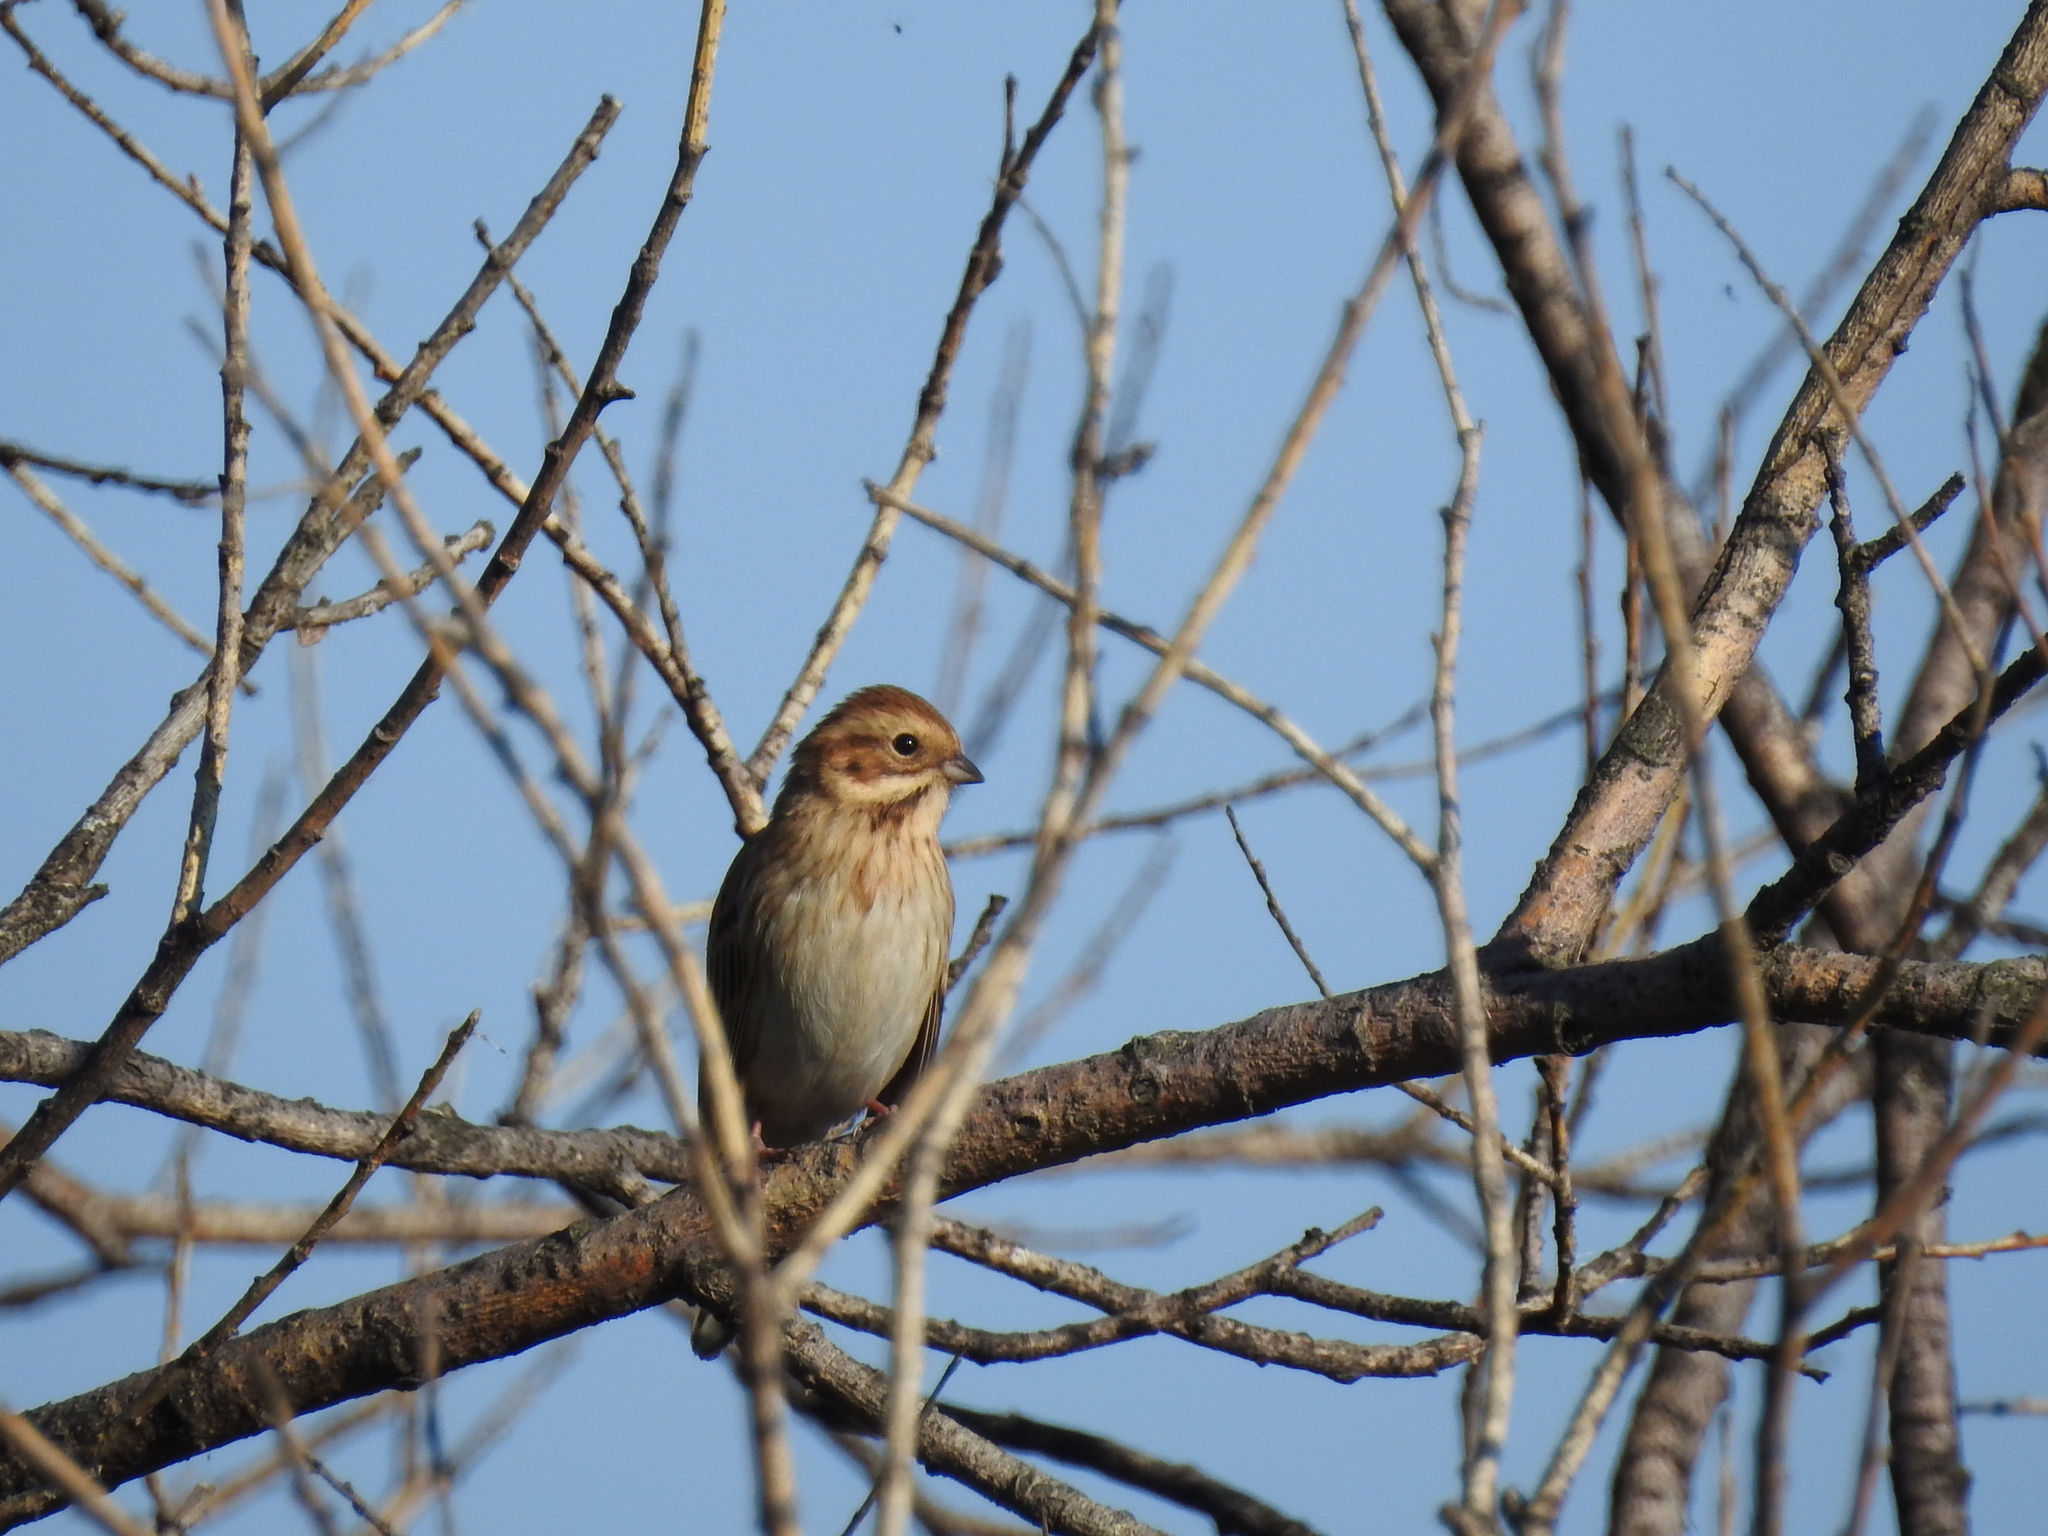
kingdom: Animalia
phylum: Chordata
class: Aves
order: Passeriformes
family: Emberizidae
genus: Emberiza
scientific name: Emberiza schoeniclus
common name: Reed bunting
